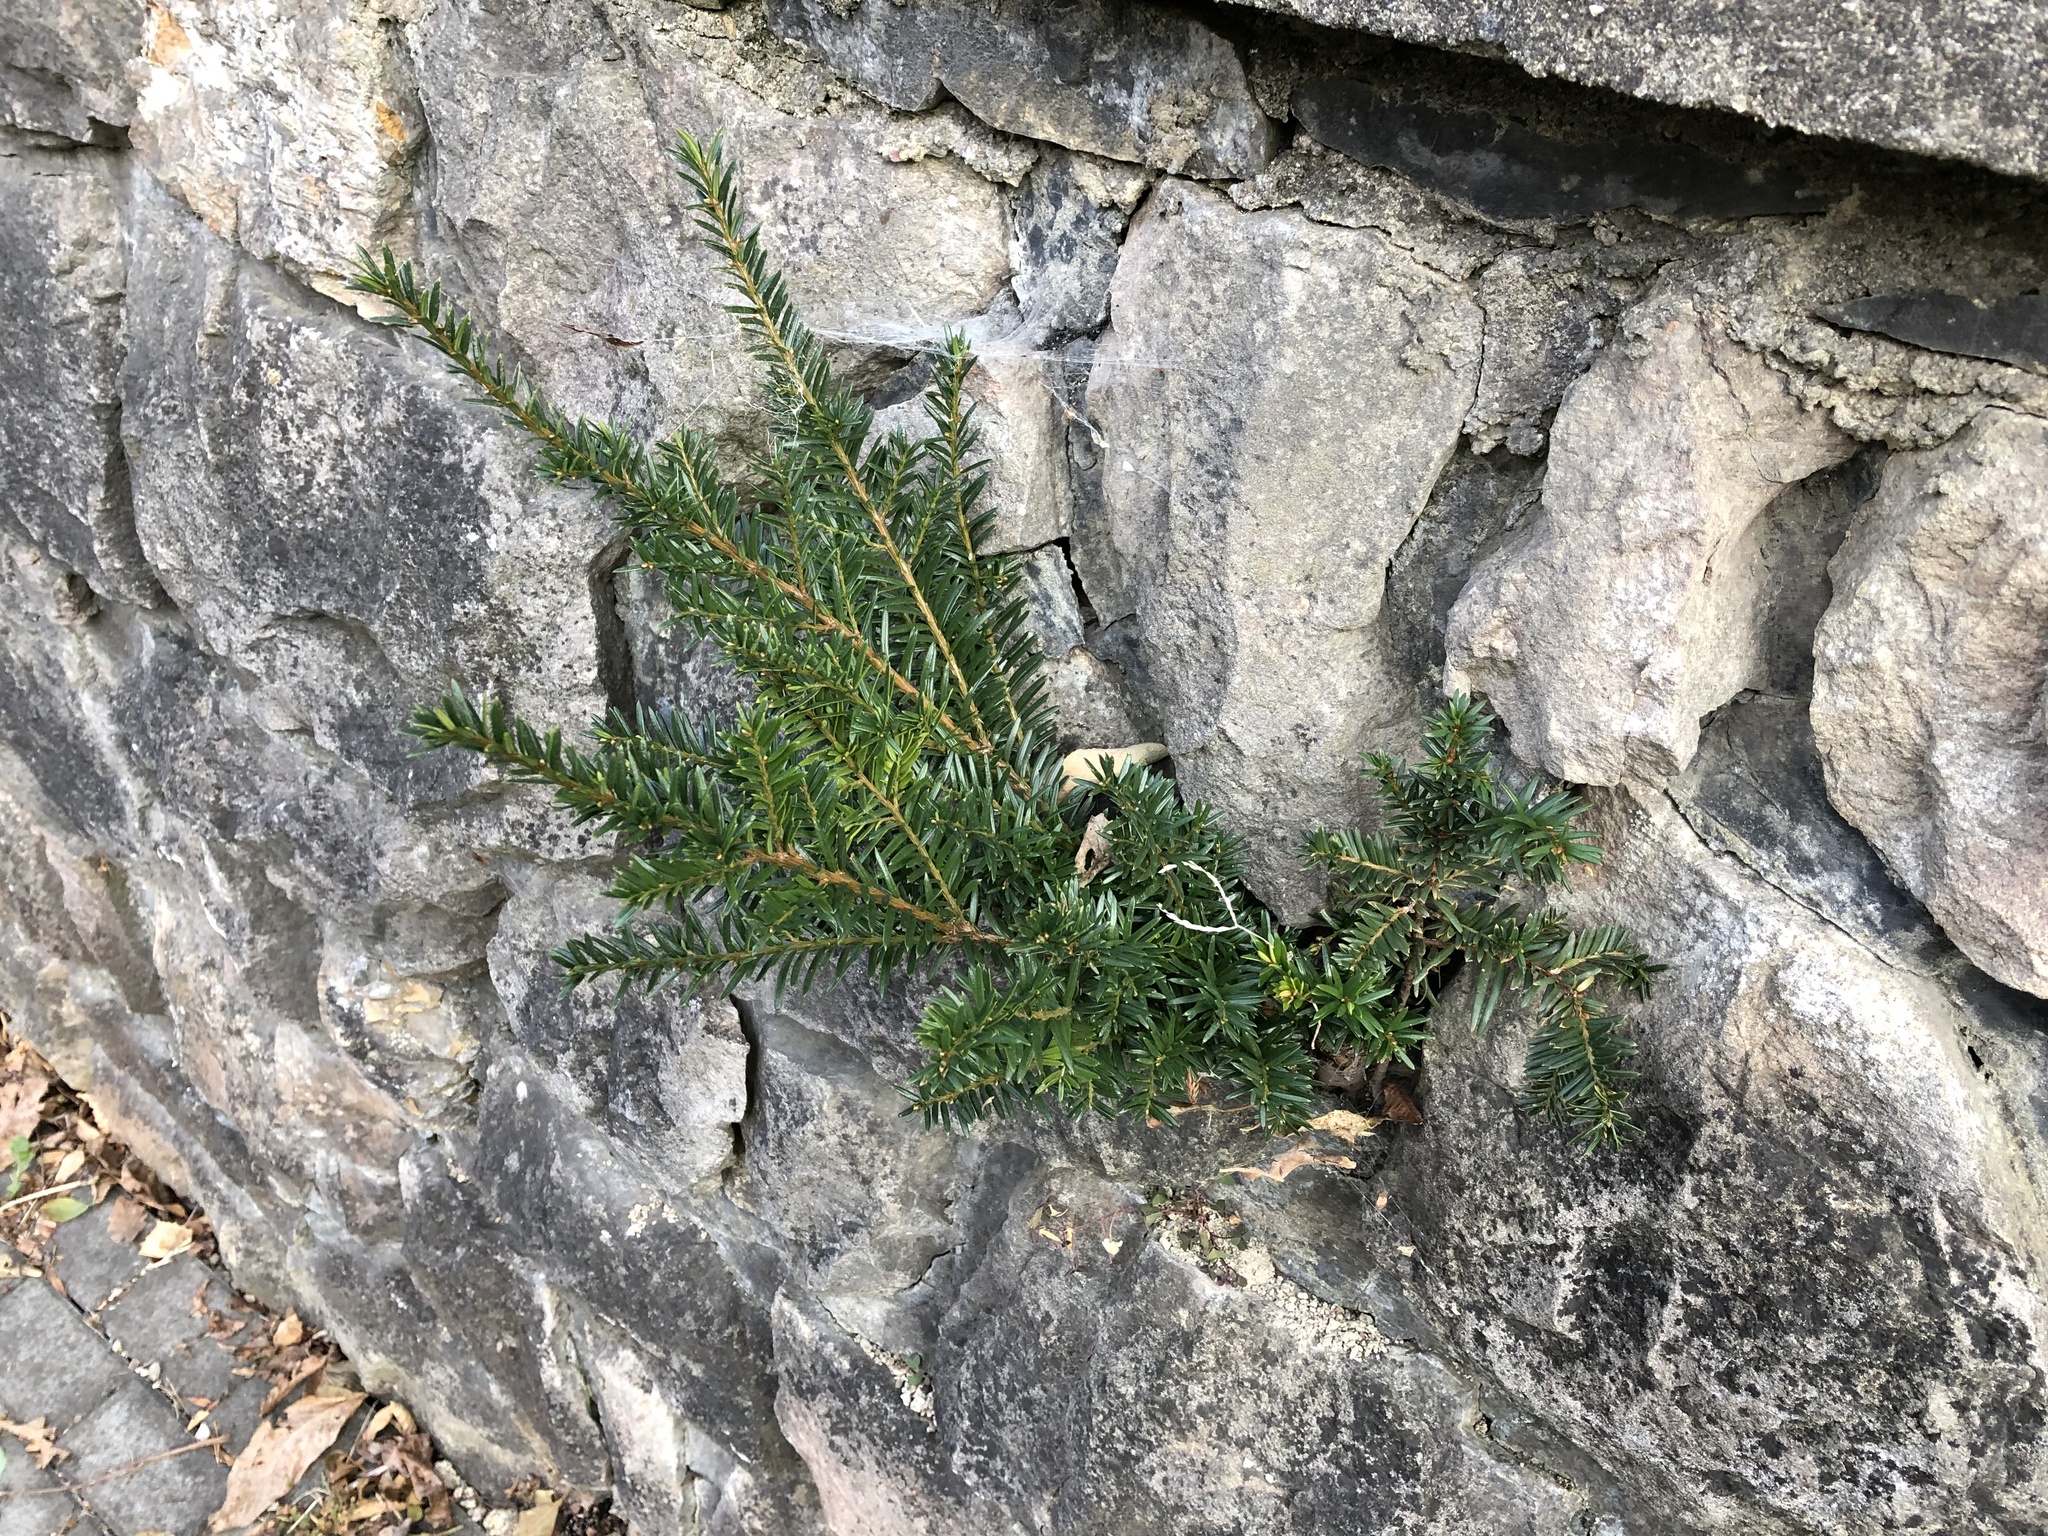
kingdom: Plantae
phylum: Tracheophyta
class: Pinopsida
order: Pinales
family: Taxaceae
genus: Taxus
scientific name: Taxus baccata
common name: Yew
